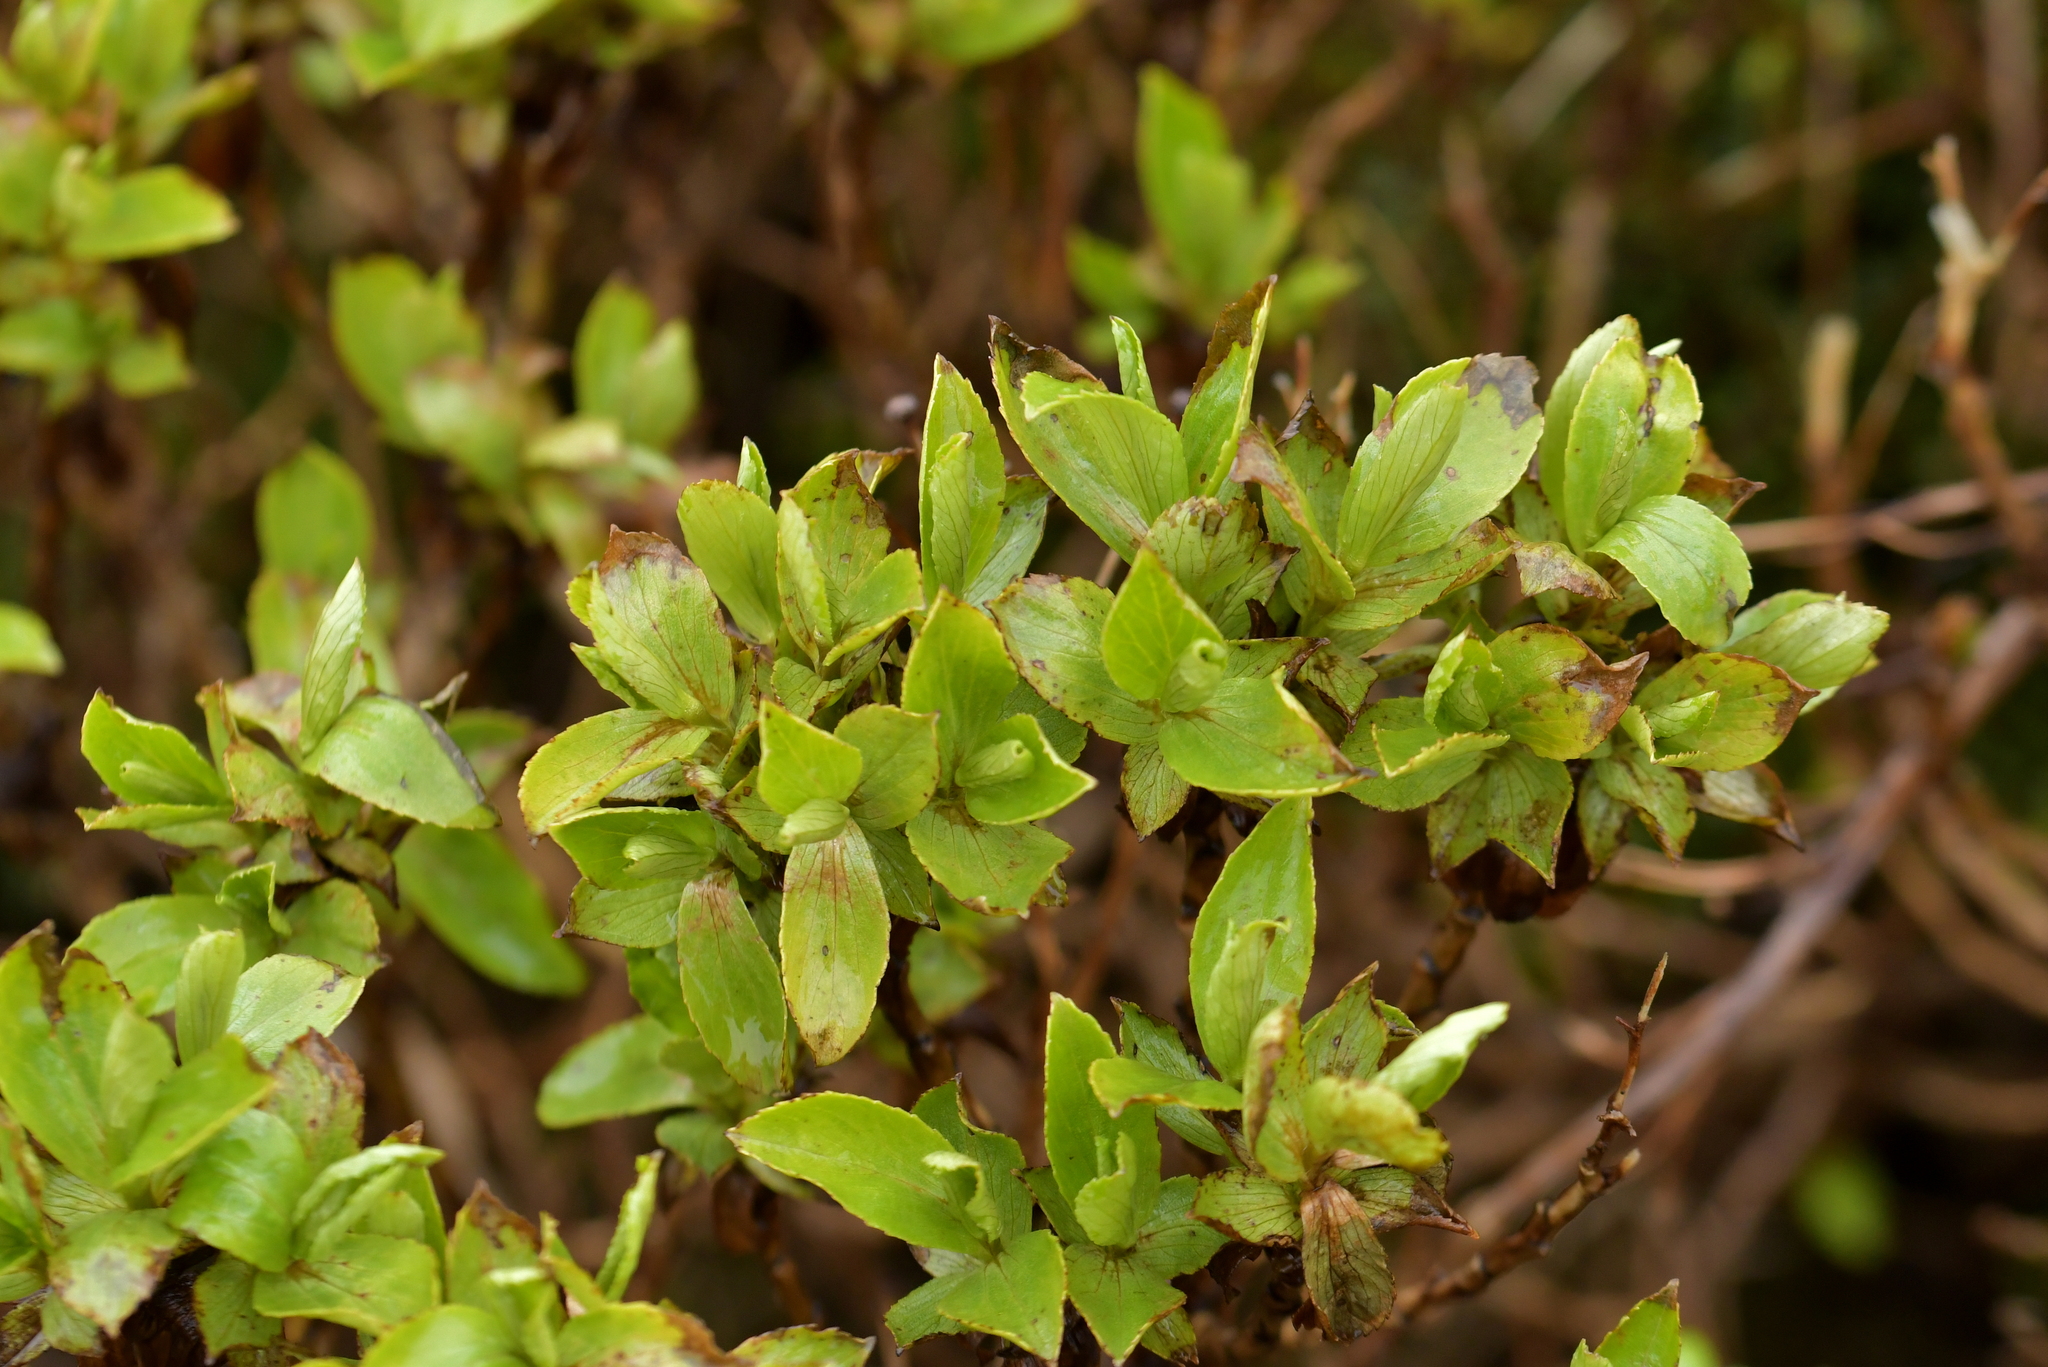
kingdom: Plantae
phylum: Tracheophyta
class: Magnoliopsida
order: Asterales
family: Asteraceae
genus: Traversia
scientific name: Traversia baccharoides
